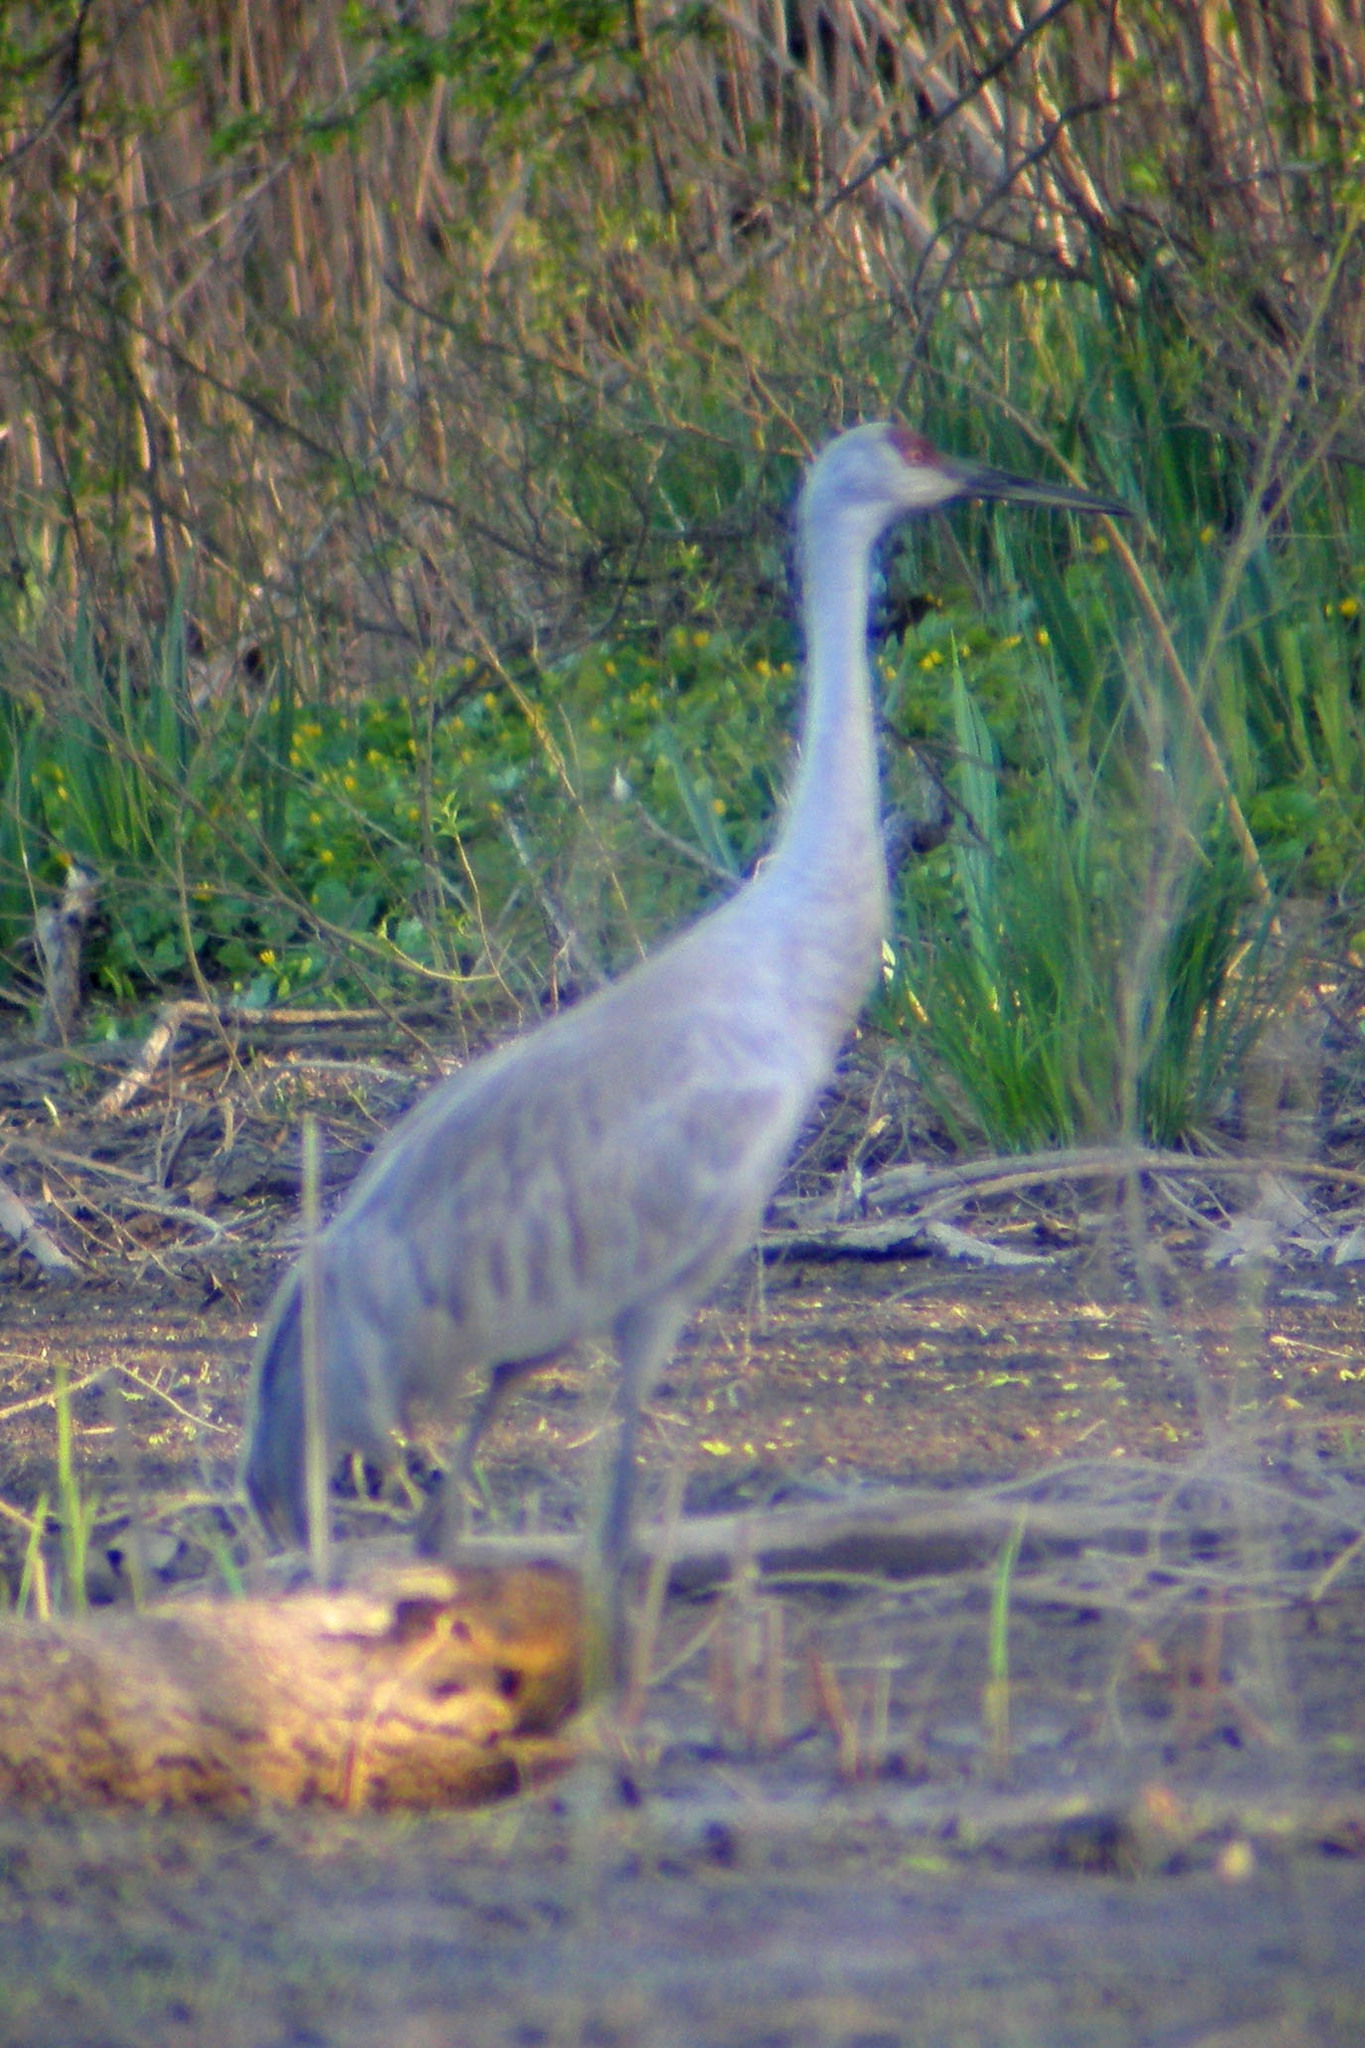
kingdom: Animalia
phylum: Chordata
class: Aves
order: Gruiformes
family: Gruidae
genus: Grus
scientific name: Grus canadensis
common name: Sandhill crane
